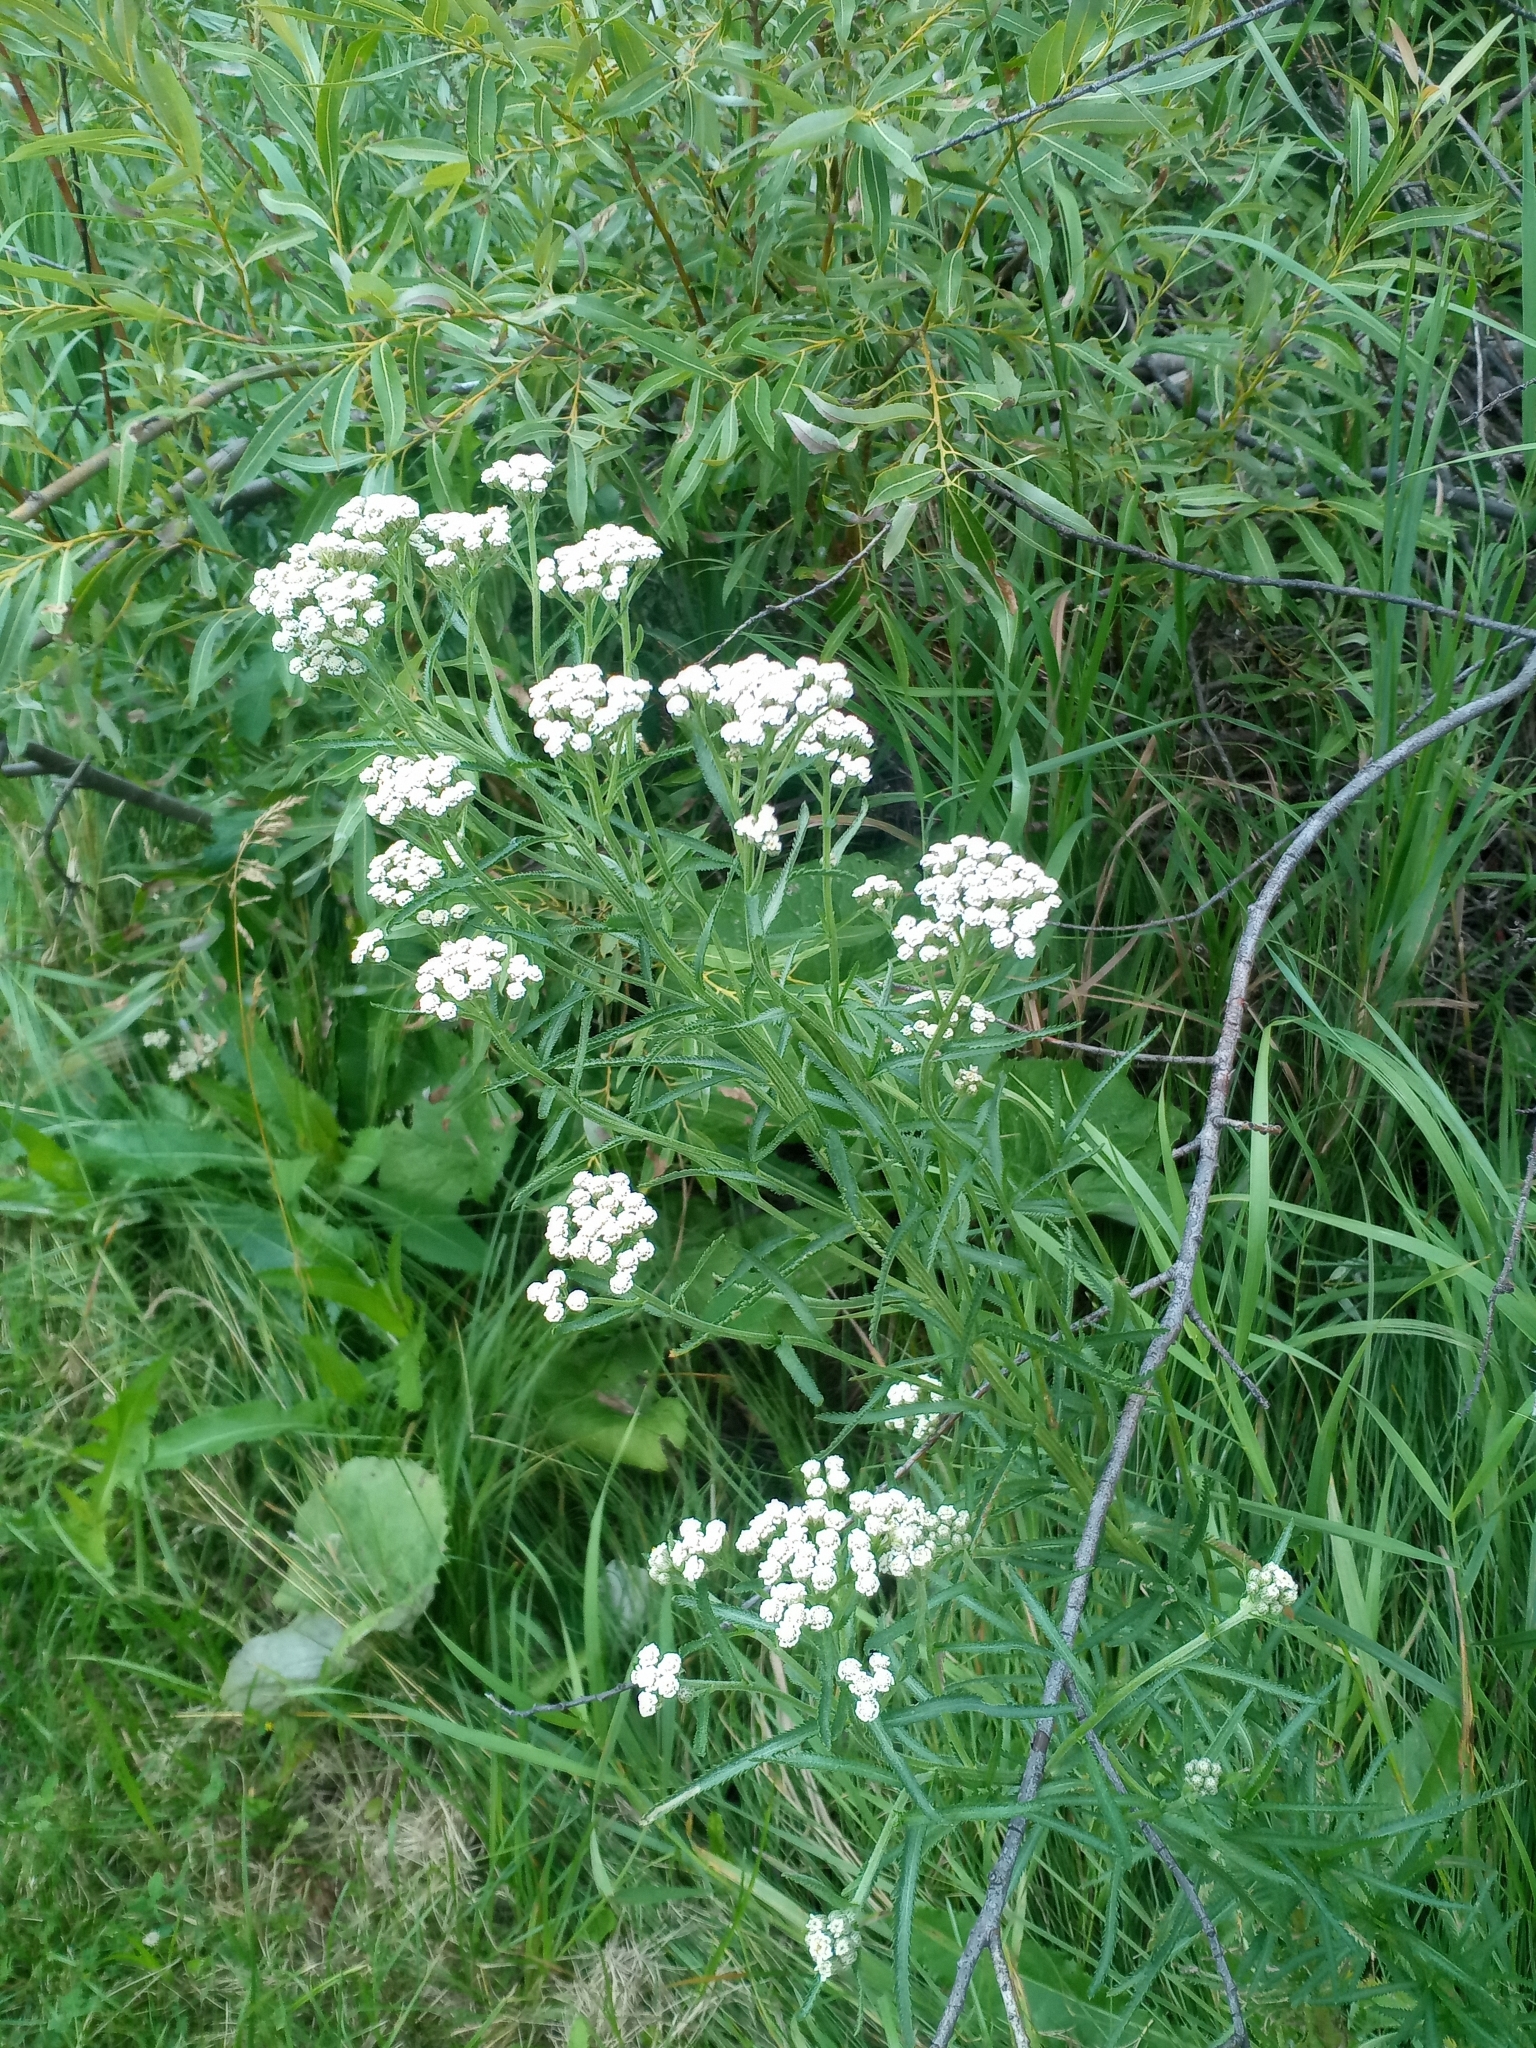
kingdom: Plantae
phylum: Tracheophyta
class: Magnoliopsida
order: Asterales
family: Asteraceae
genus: Achillea
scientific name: Achillea alpina
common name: Siberian yarrow
